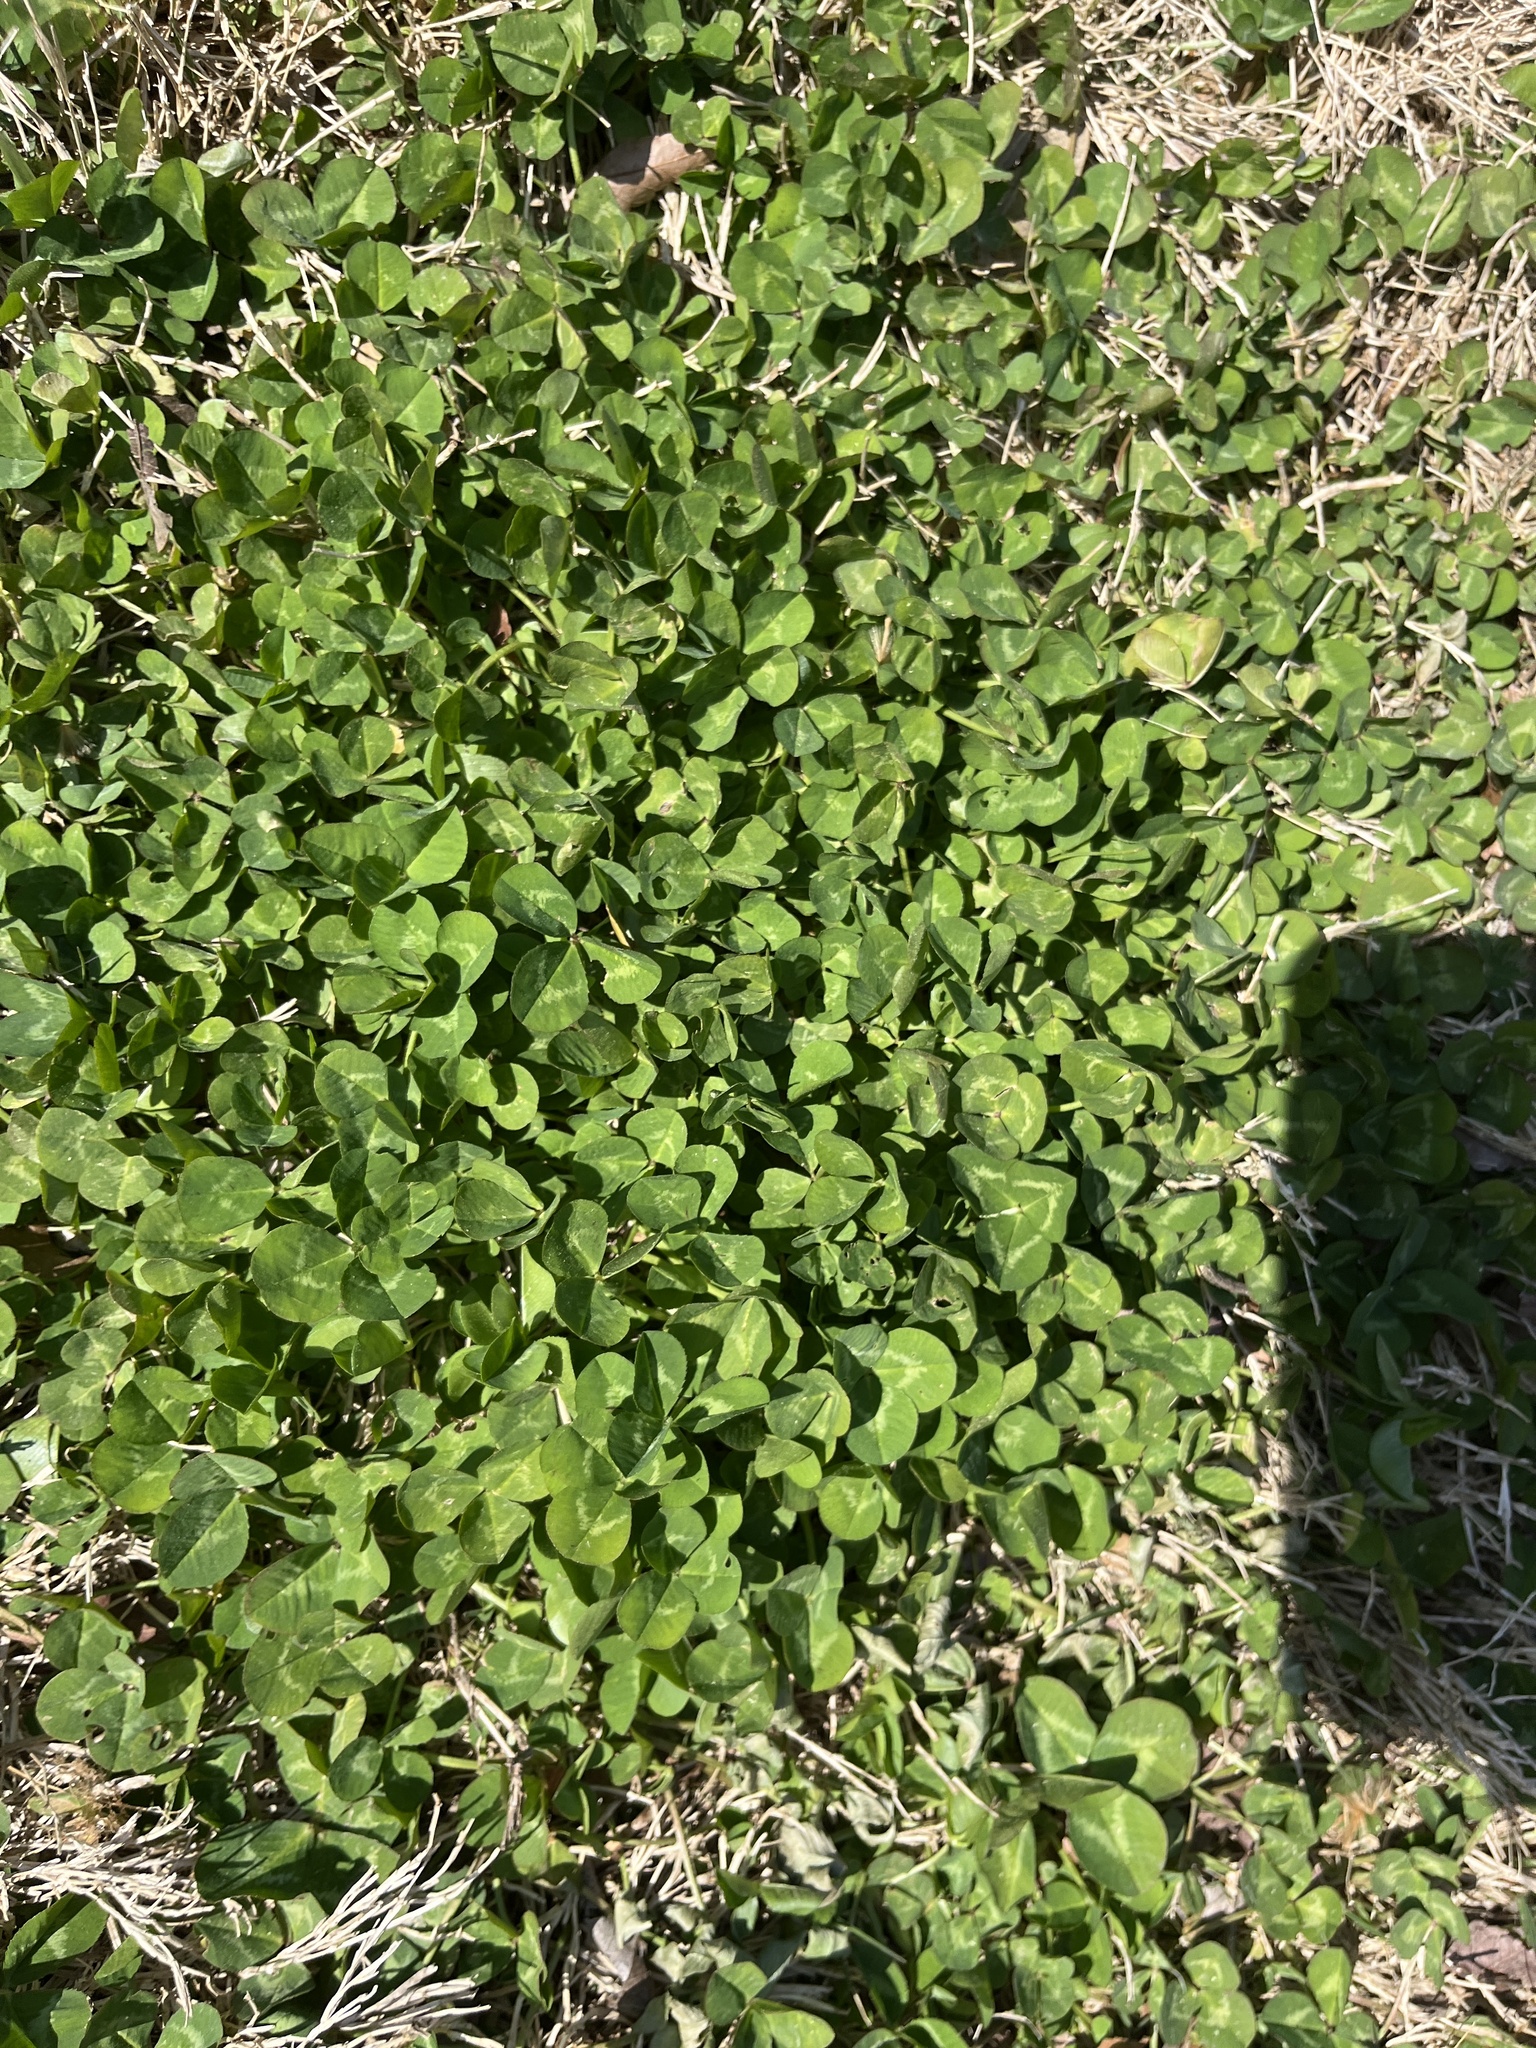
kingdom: Plantae
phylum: Tracheophyta
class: Magnoliopsida
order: Fabales
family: Fabaceae
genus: Trifolium
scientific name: Trifolium repens
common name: White clover
